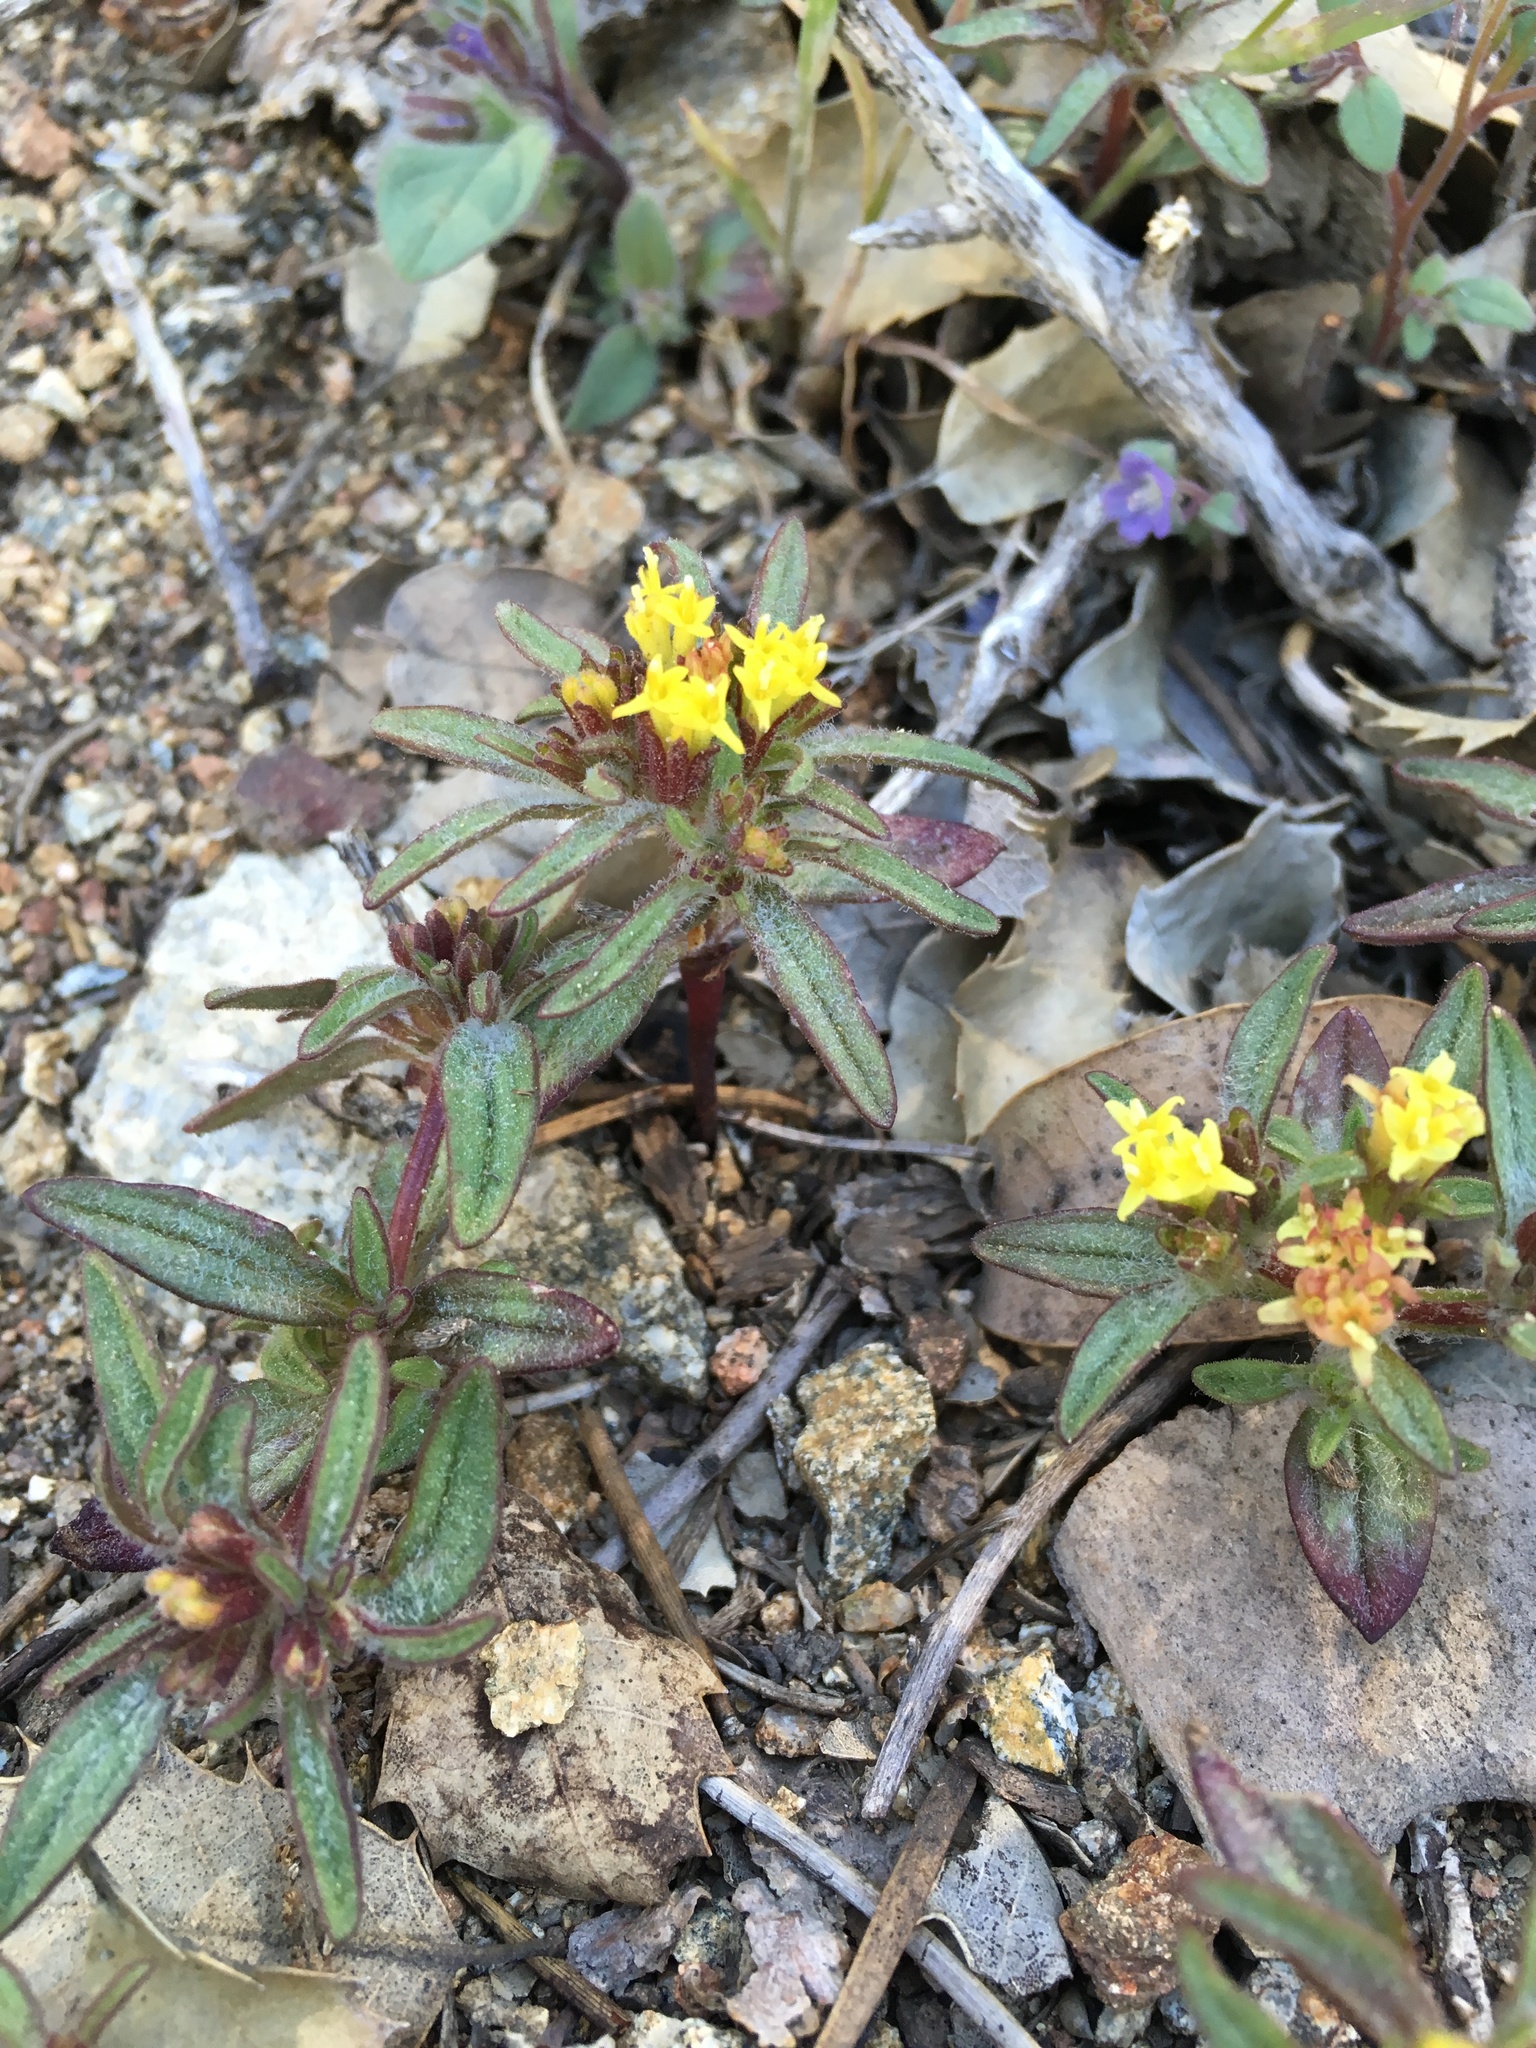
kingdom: Plantae
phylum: Tracheophyta
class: Magnoliopsida
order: Asterales
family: Asteraceae
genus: Orochaenactis
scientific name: Orochaenactis thysanocarpha
